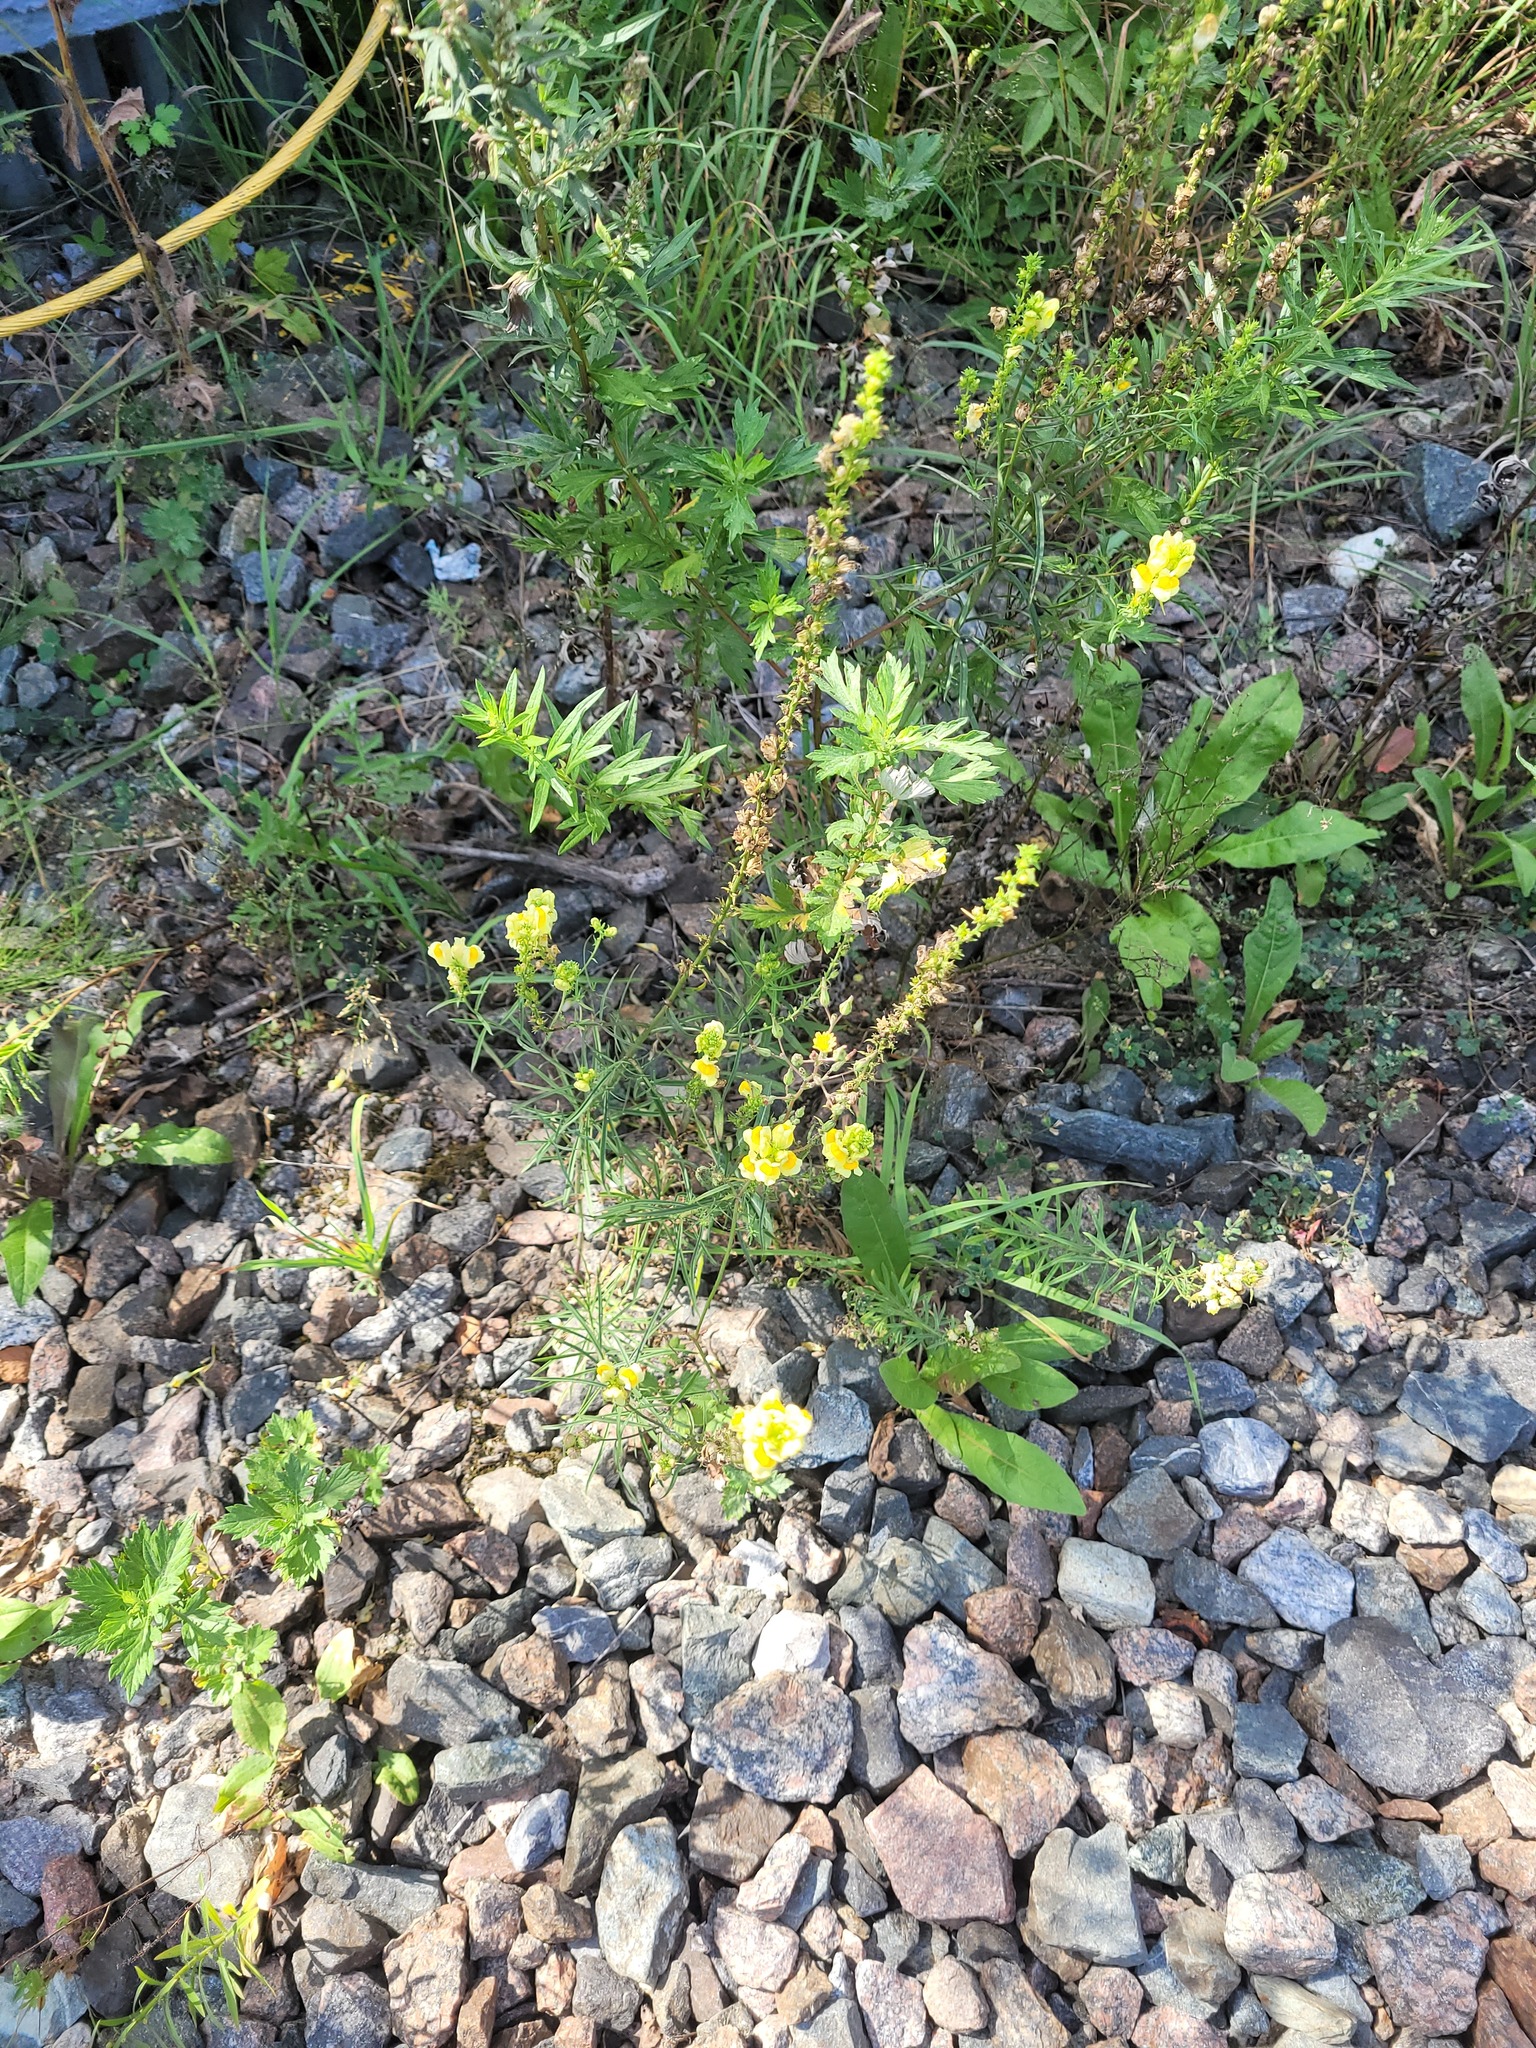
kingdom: Plantae
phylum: Tracheophyta
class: Magnoliopsida
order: Lamiales
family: Plantaginaceae
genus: Linaria
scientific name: Linaria vulgaris
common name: Butter and eggs
